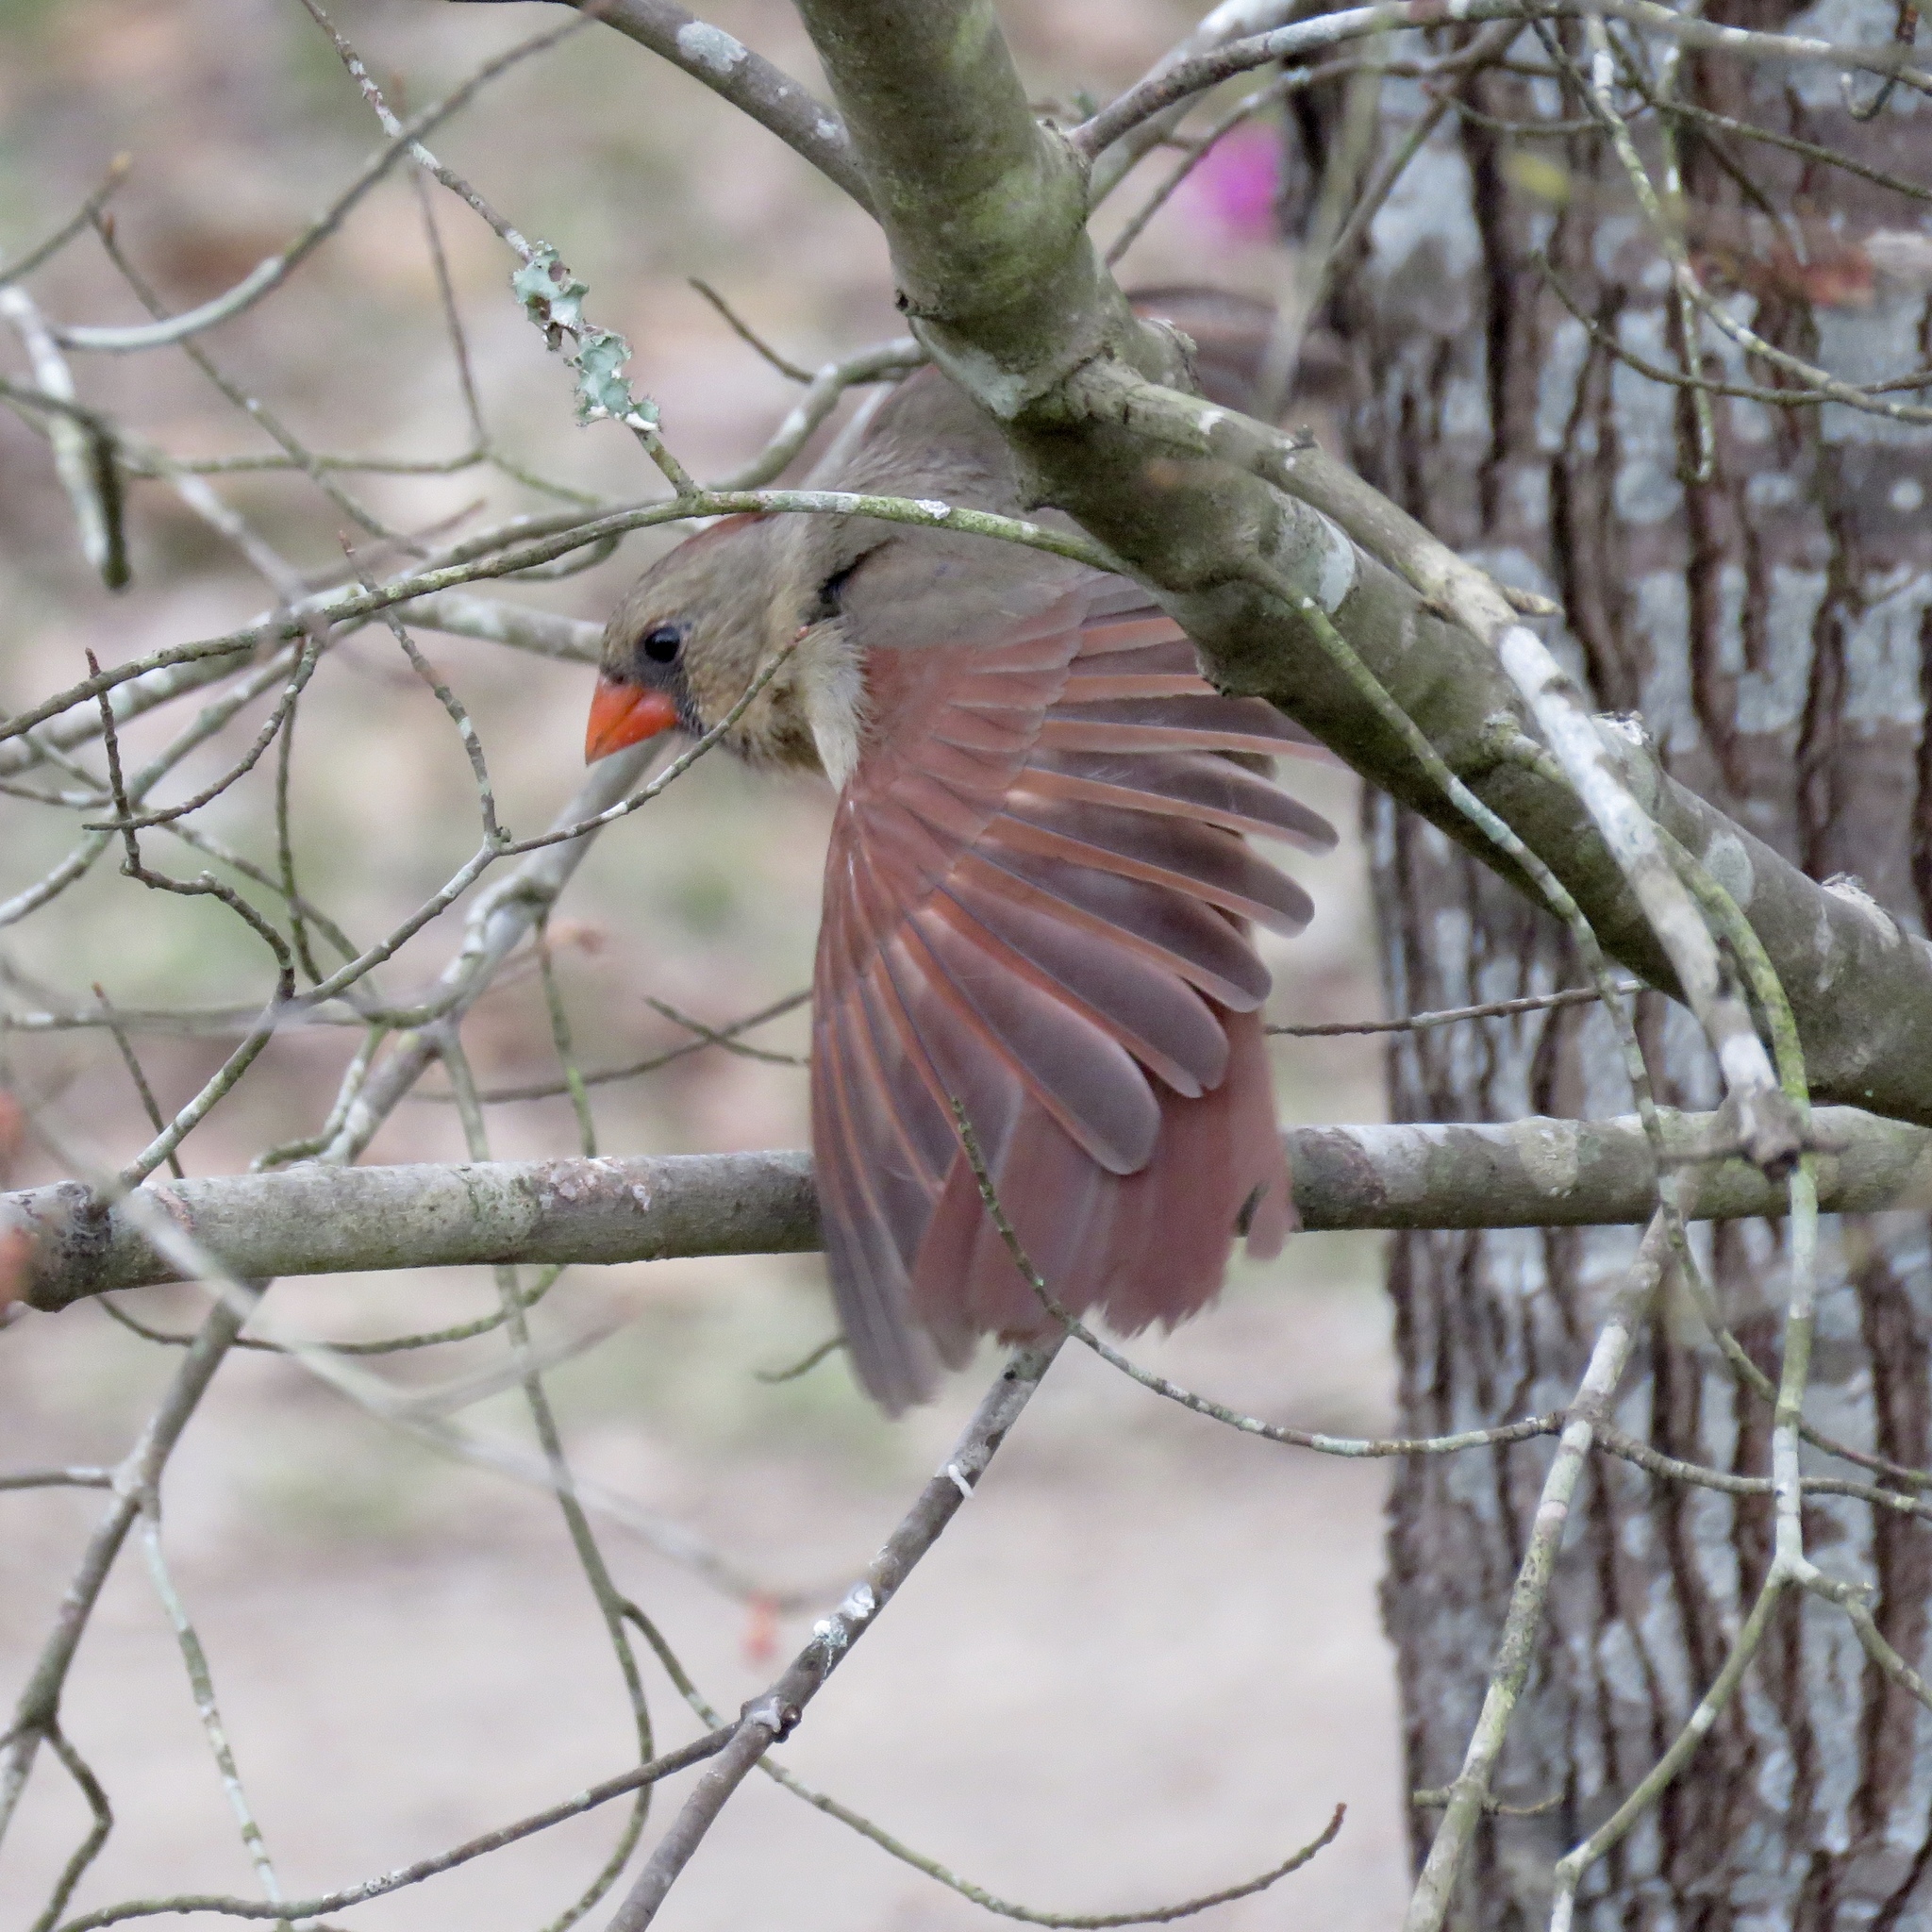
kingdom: Animalia
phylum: Chordata
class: Aves
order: Passeriformes
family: Cardinalidae
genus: Cardinalis
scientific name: Cardinalis cardinalis
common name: Northern cardinal
